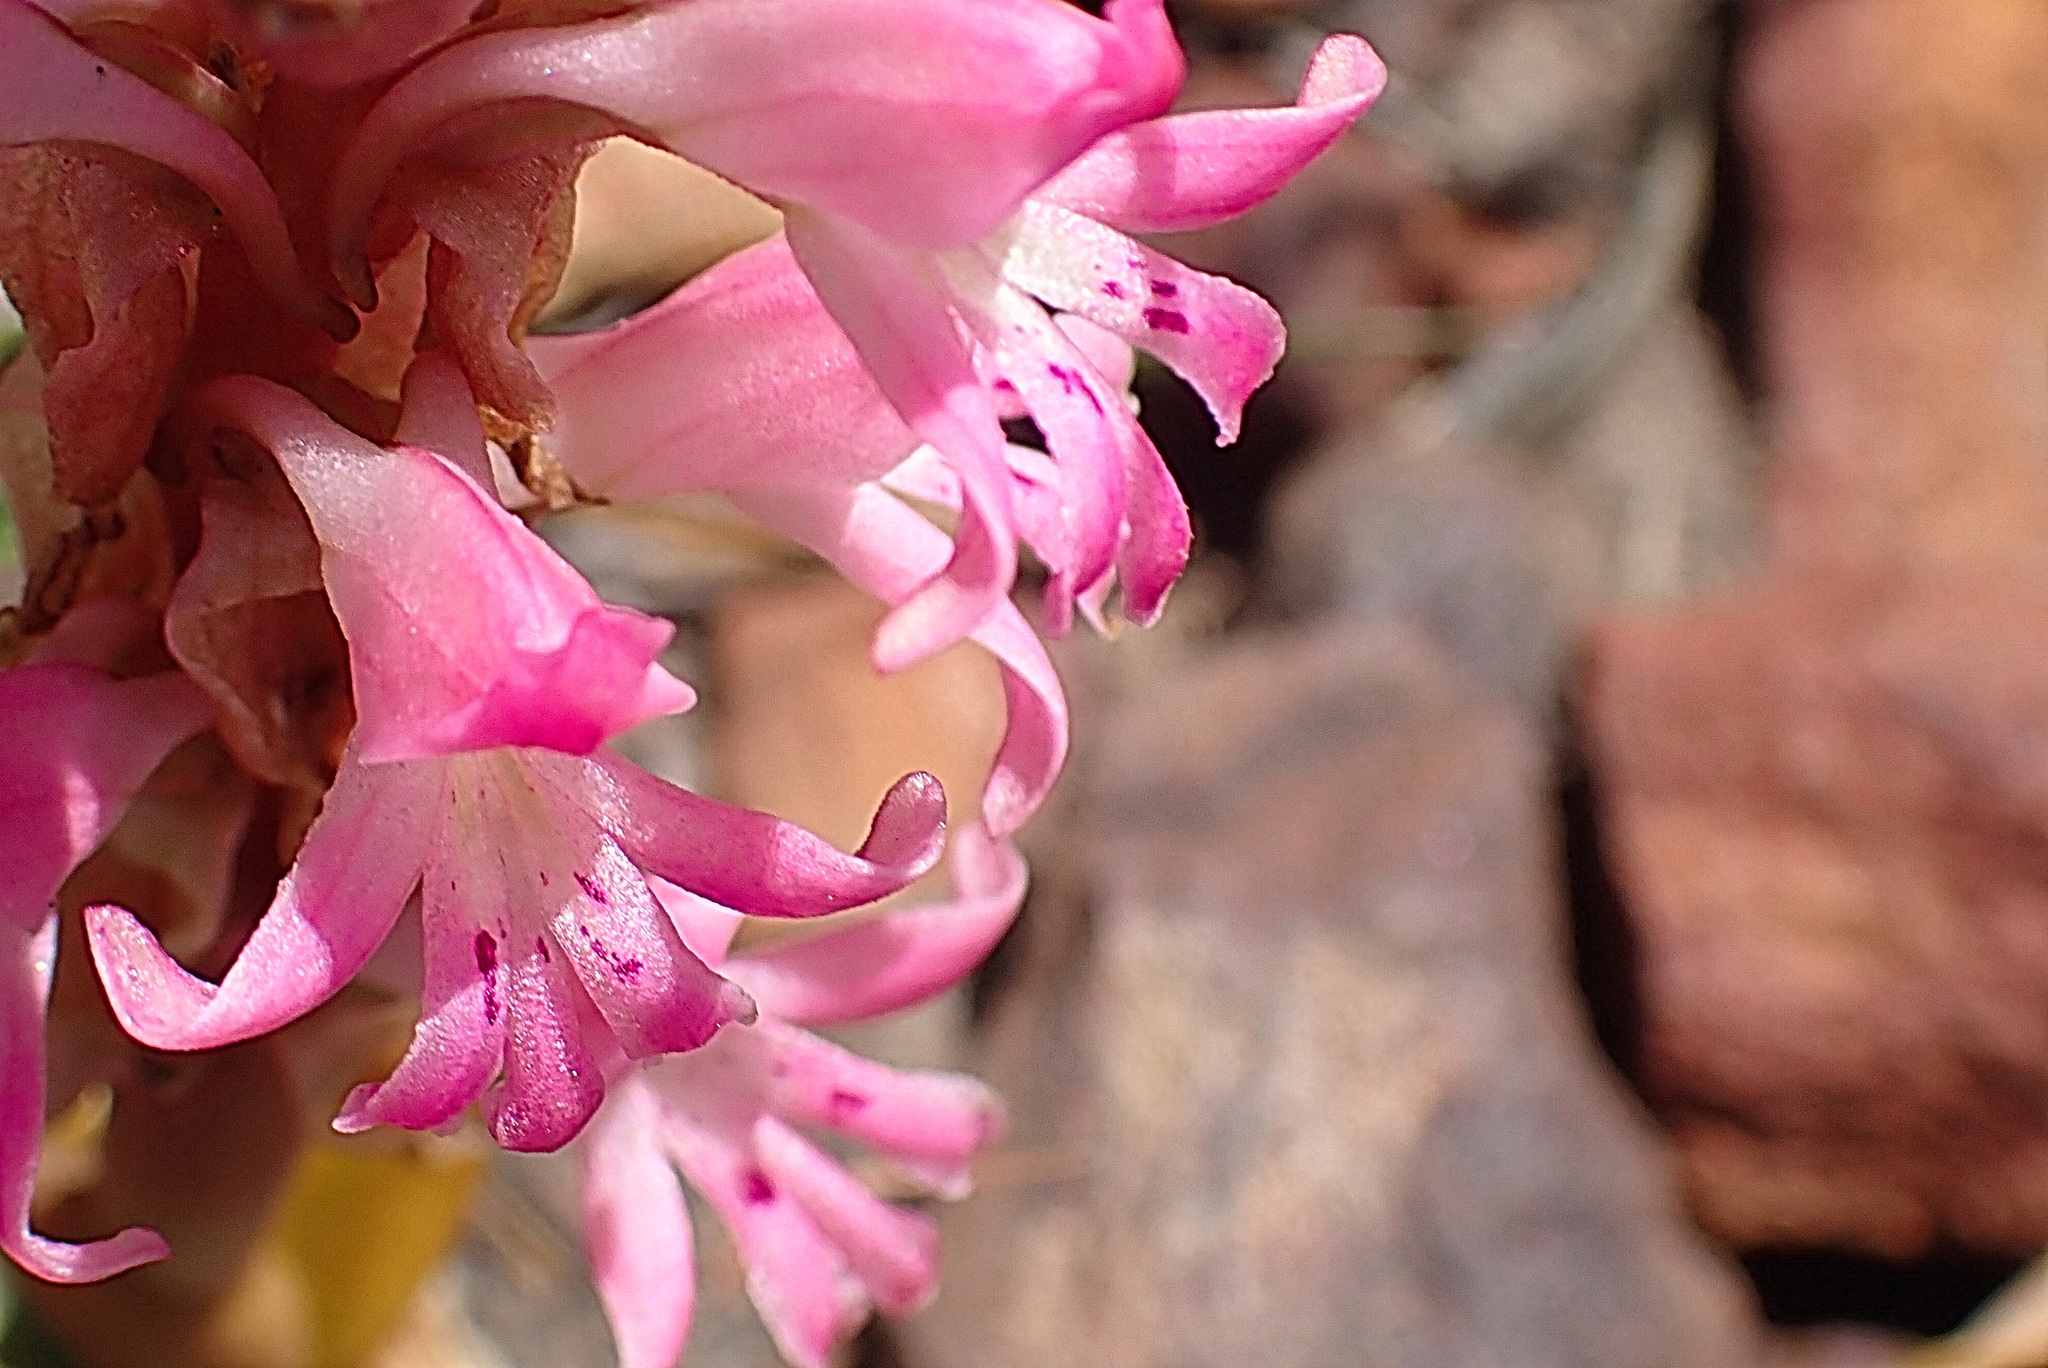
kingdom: Plantae
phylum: Tracheophyta
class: Liliopsida
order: Asparagales
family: Orchidaceae
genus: Satyrium
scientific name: Satyrium erectum
